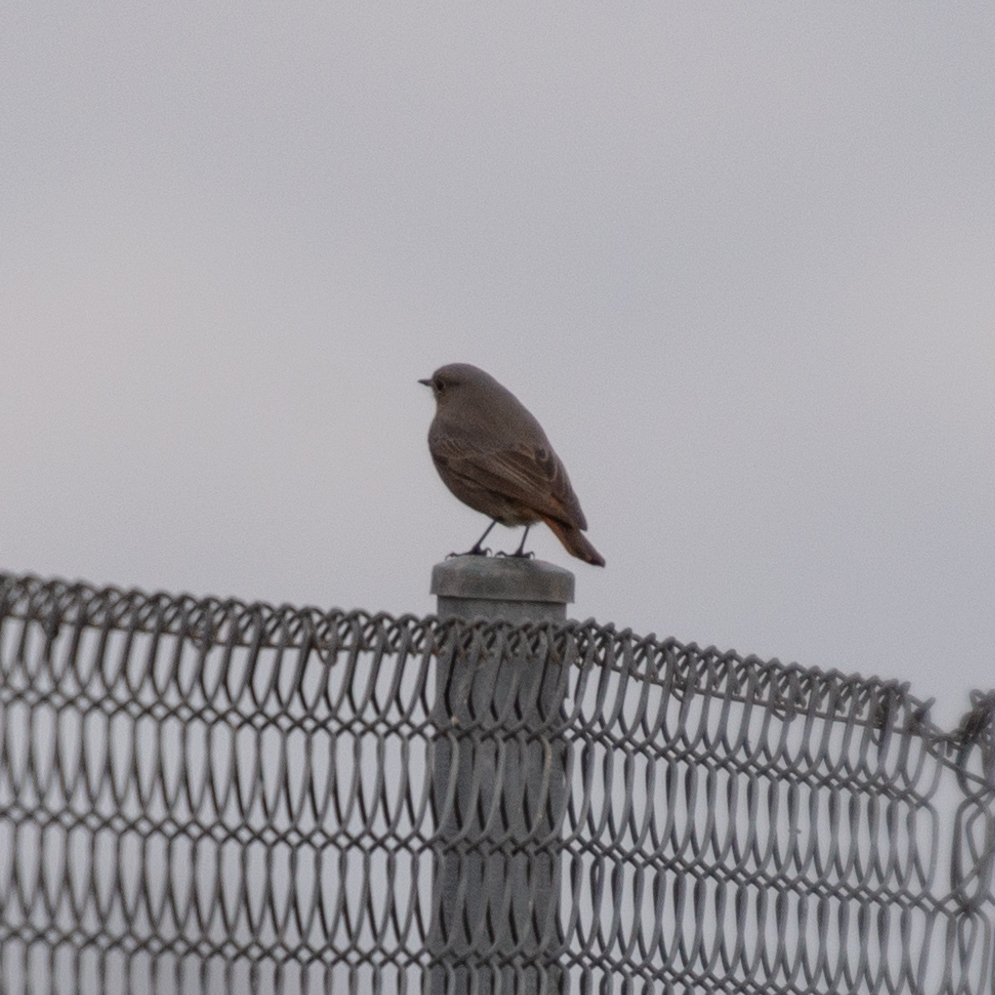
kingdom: Animalia
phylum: Chordata
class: Aves
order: Passeriformes
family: Muscicapidae
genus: Phoenicurus
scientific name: Phoenicurus ochruros
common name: Black redstart
